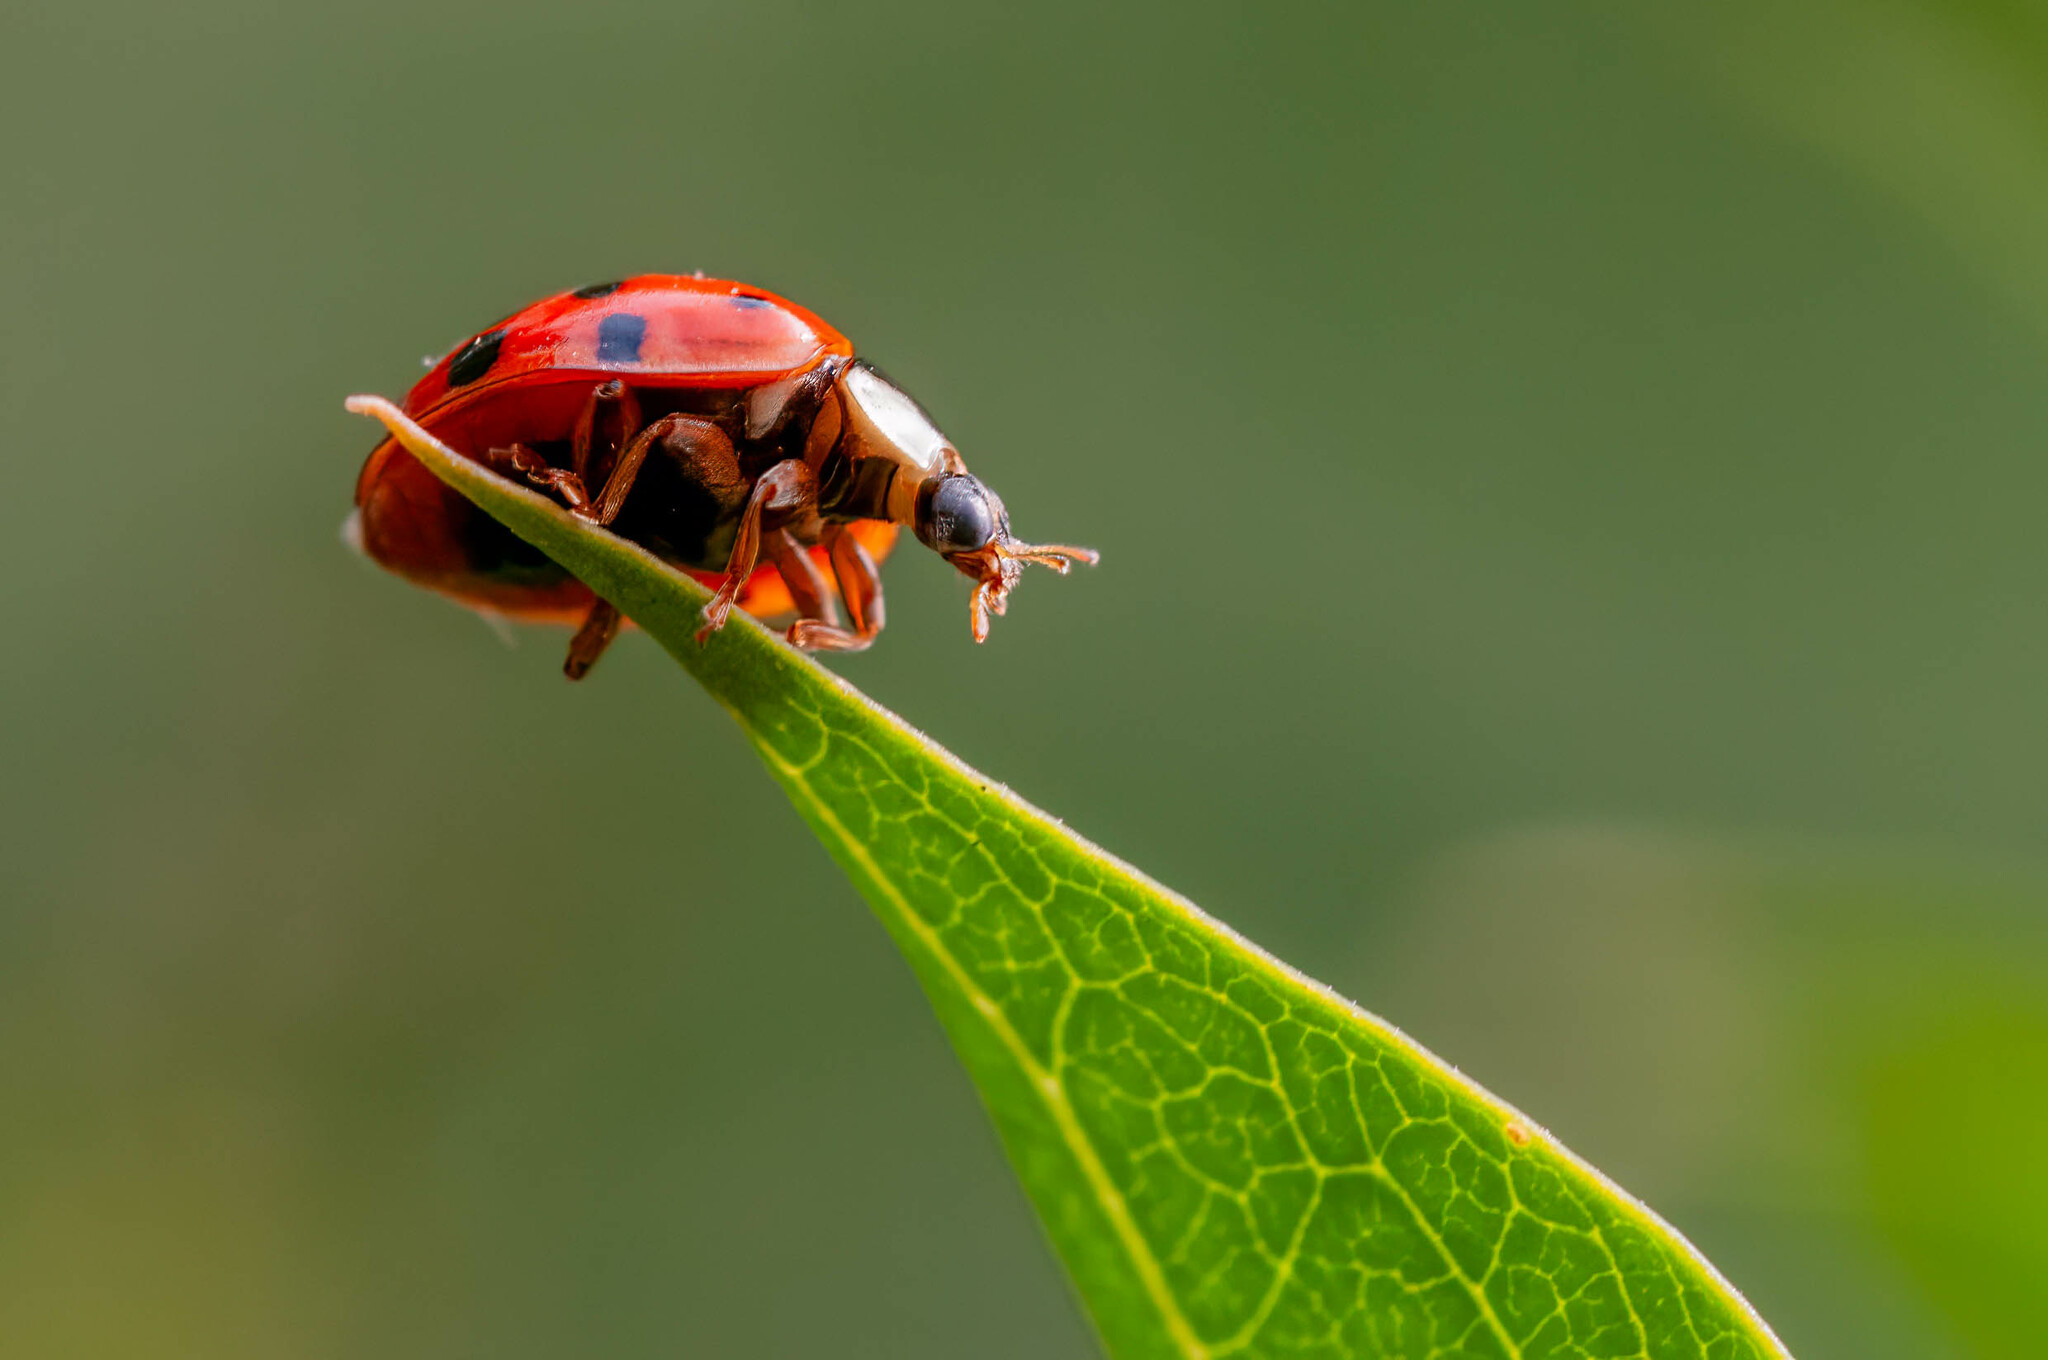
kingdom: Animalia
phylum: Arthropoda
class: Insecta
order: Coleoptera
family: Coccinellidae
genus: Harmonia
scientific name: Harmonia axyridis
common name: Harlequin ladybird
